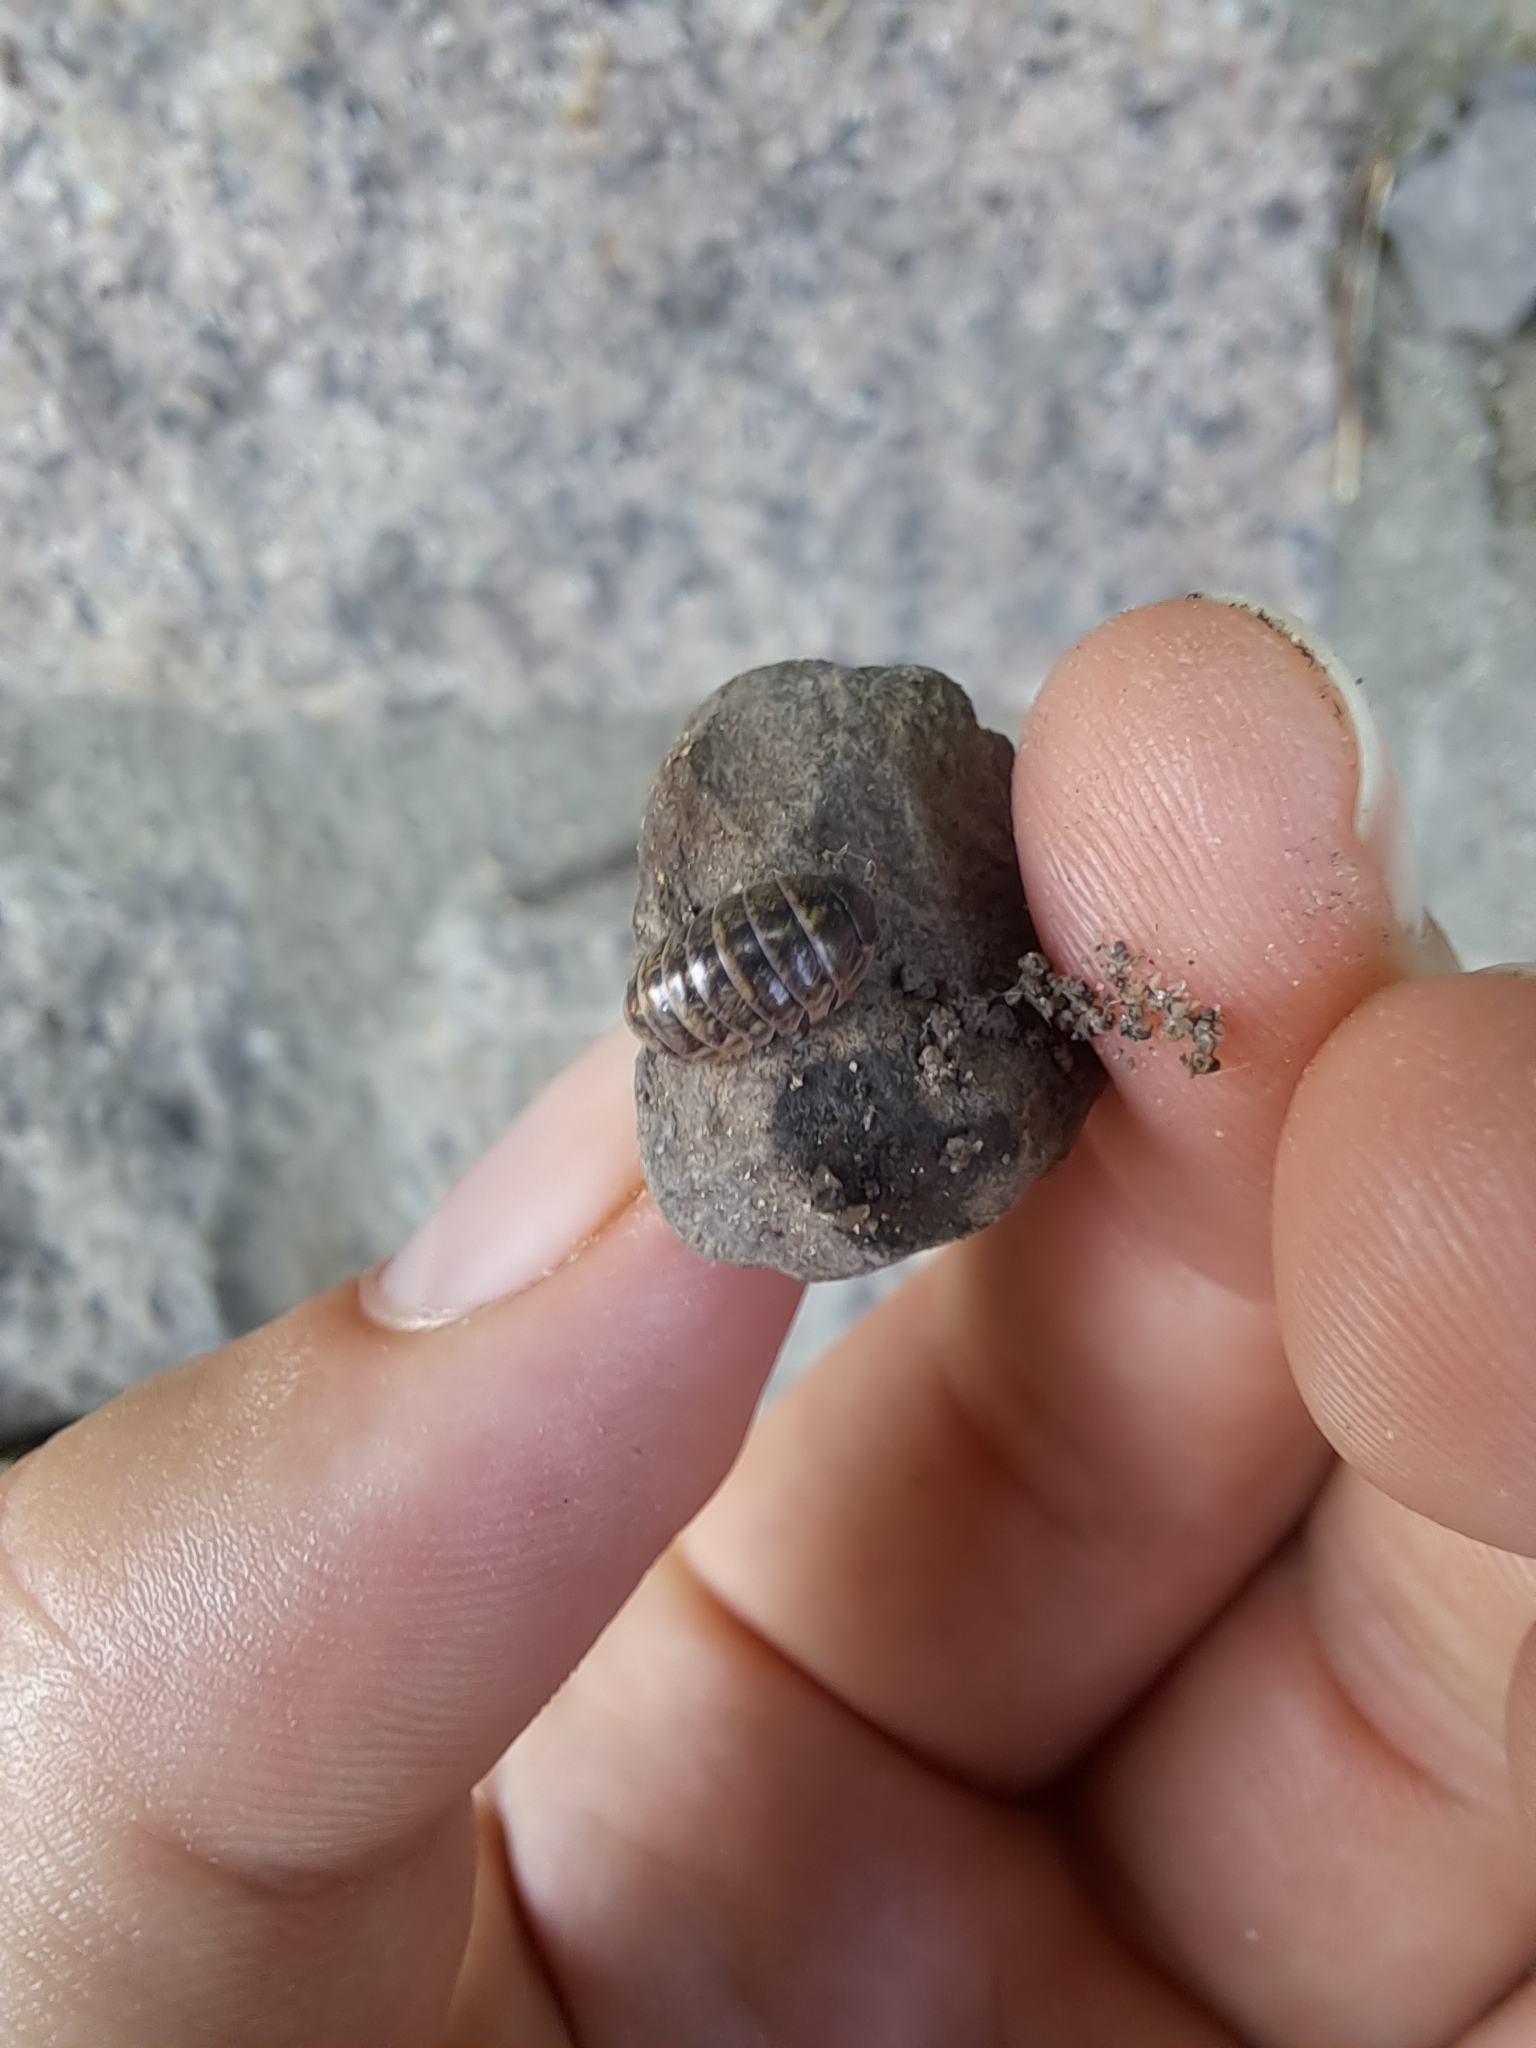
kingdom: Animalia
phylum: Arthropoda
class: Malacostraca
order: Isopoda
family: Armadillidiidae
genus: Armadillidium
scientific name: Armadillidium vulgare
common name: Common pill woodlouse
